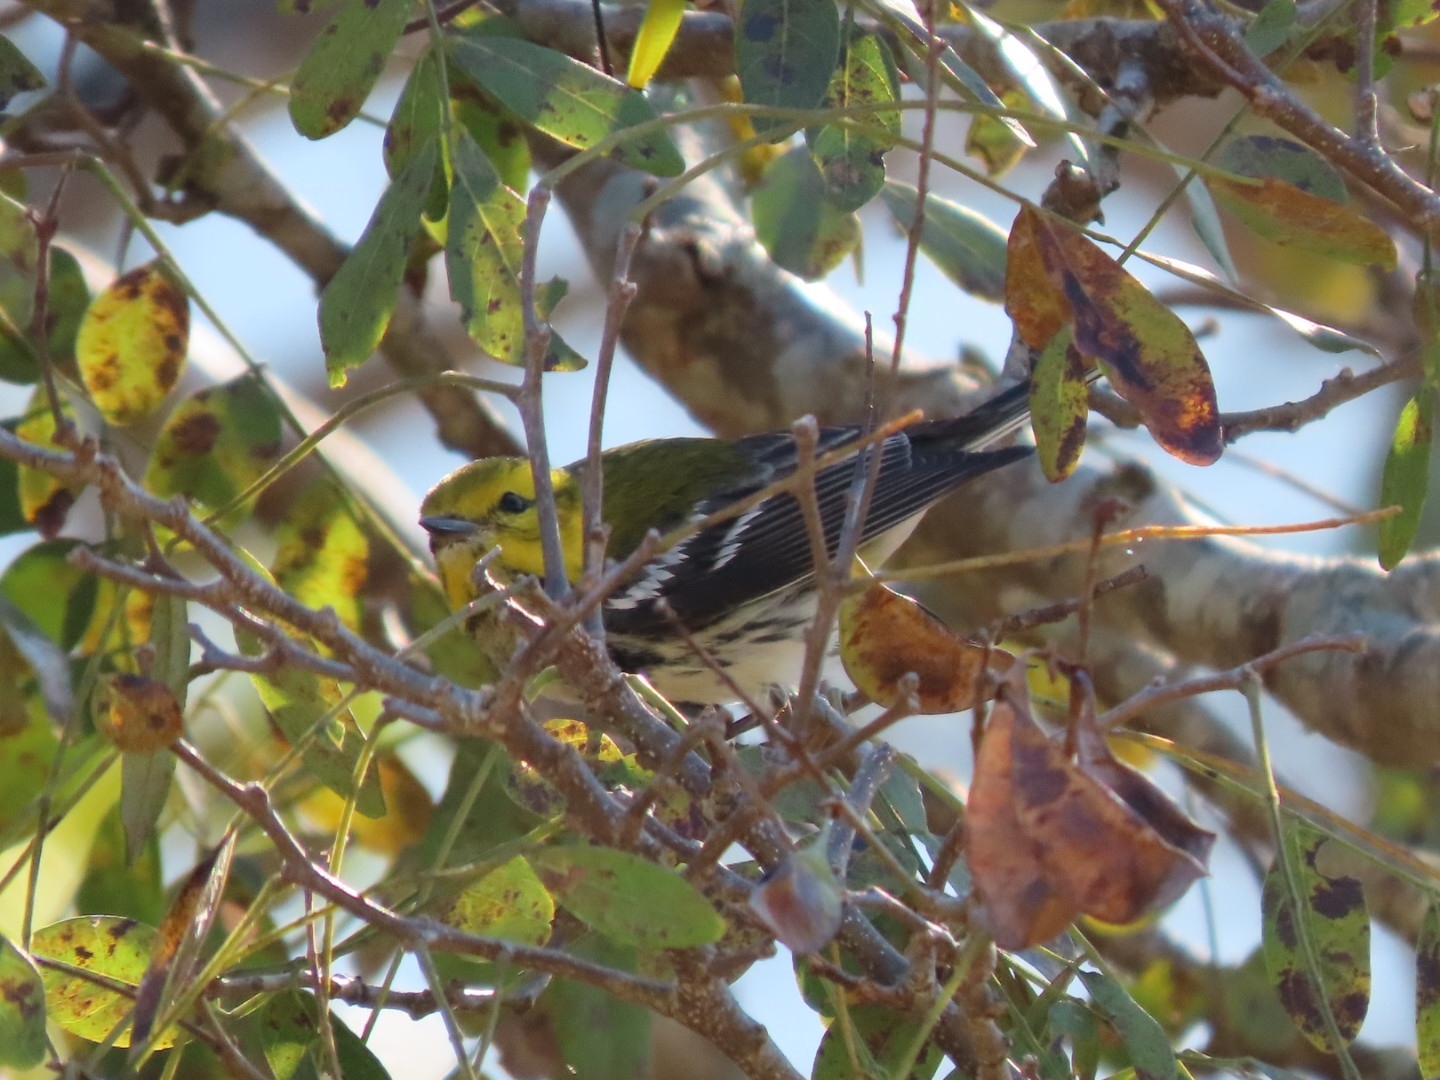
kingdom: Animalia
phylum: Chordata
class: Aves
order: Passeriformes
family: Parulidae
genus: Setophaga
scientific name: Setophaga virens
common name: Black-throated green warbler
